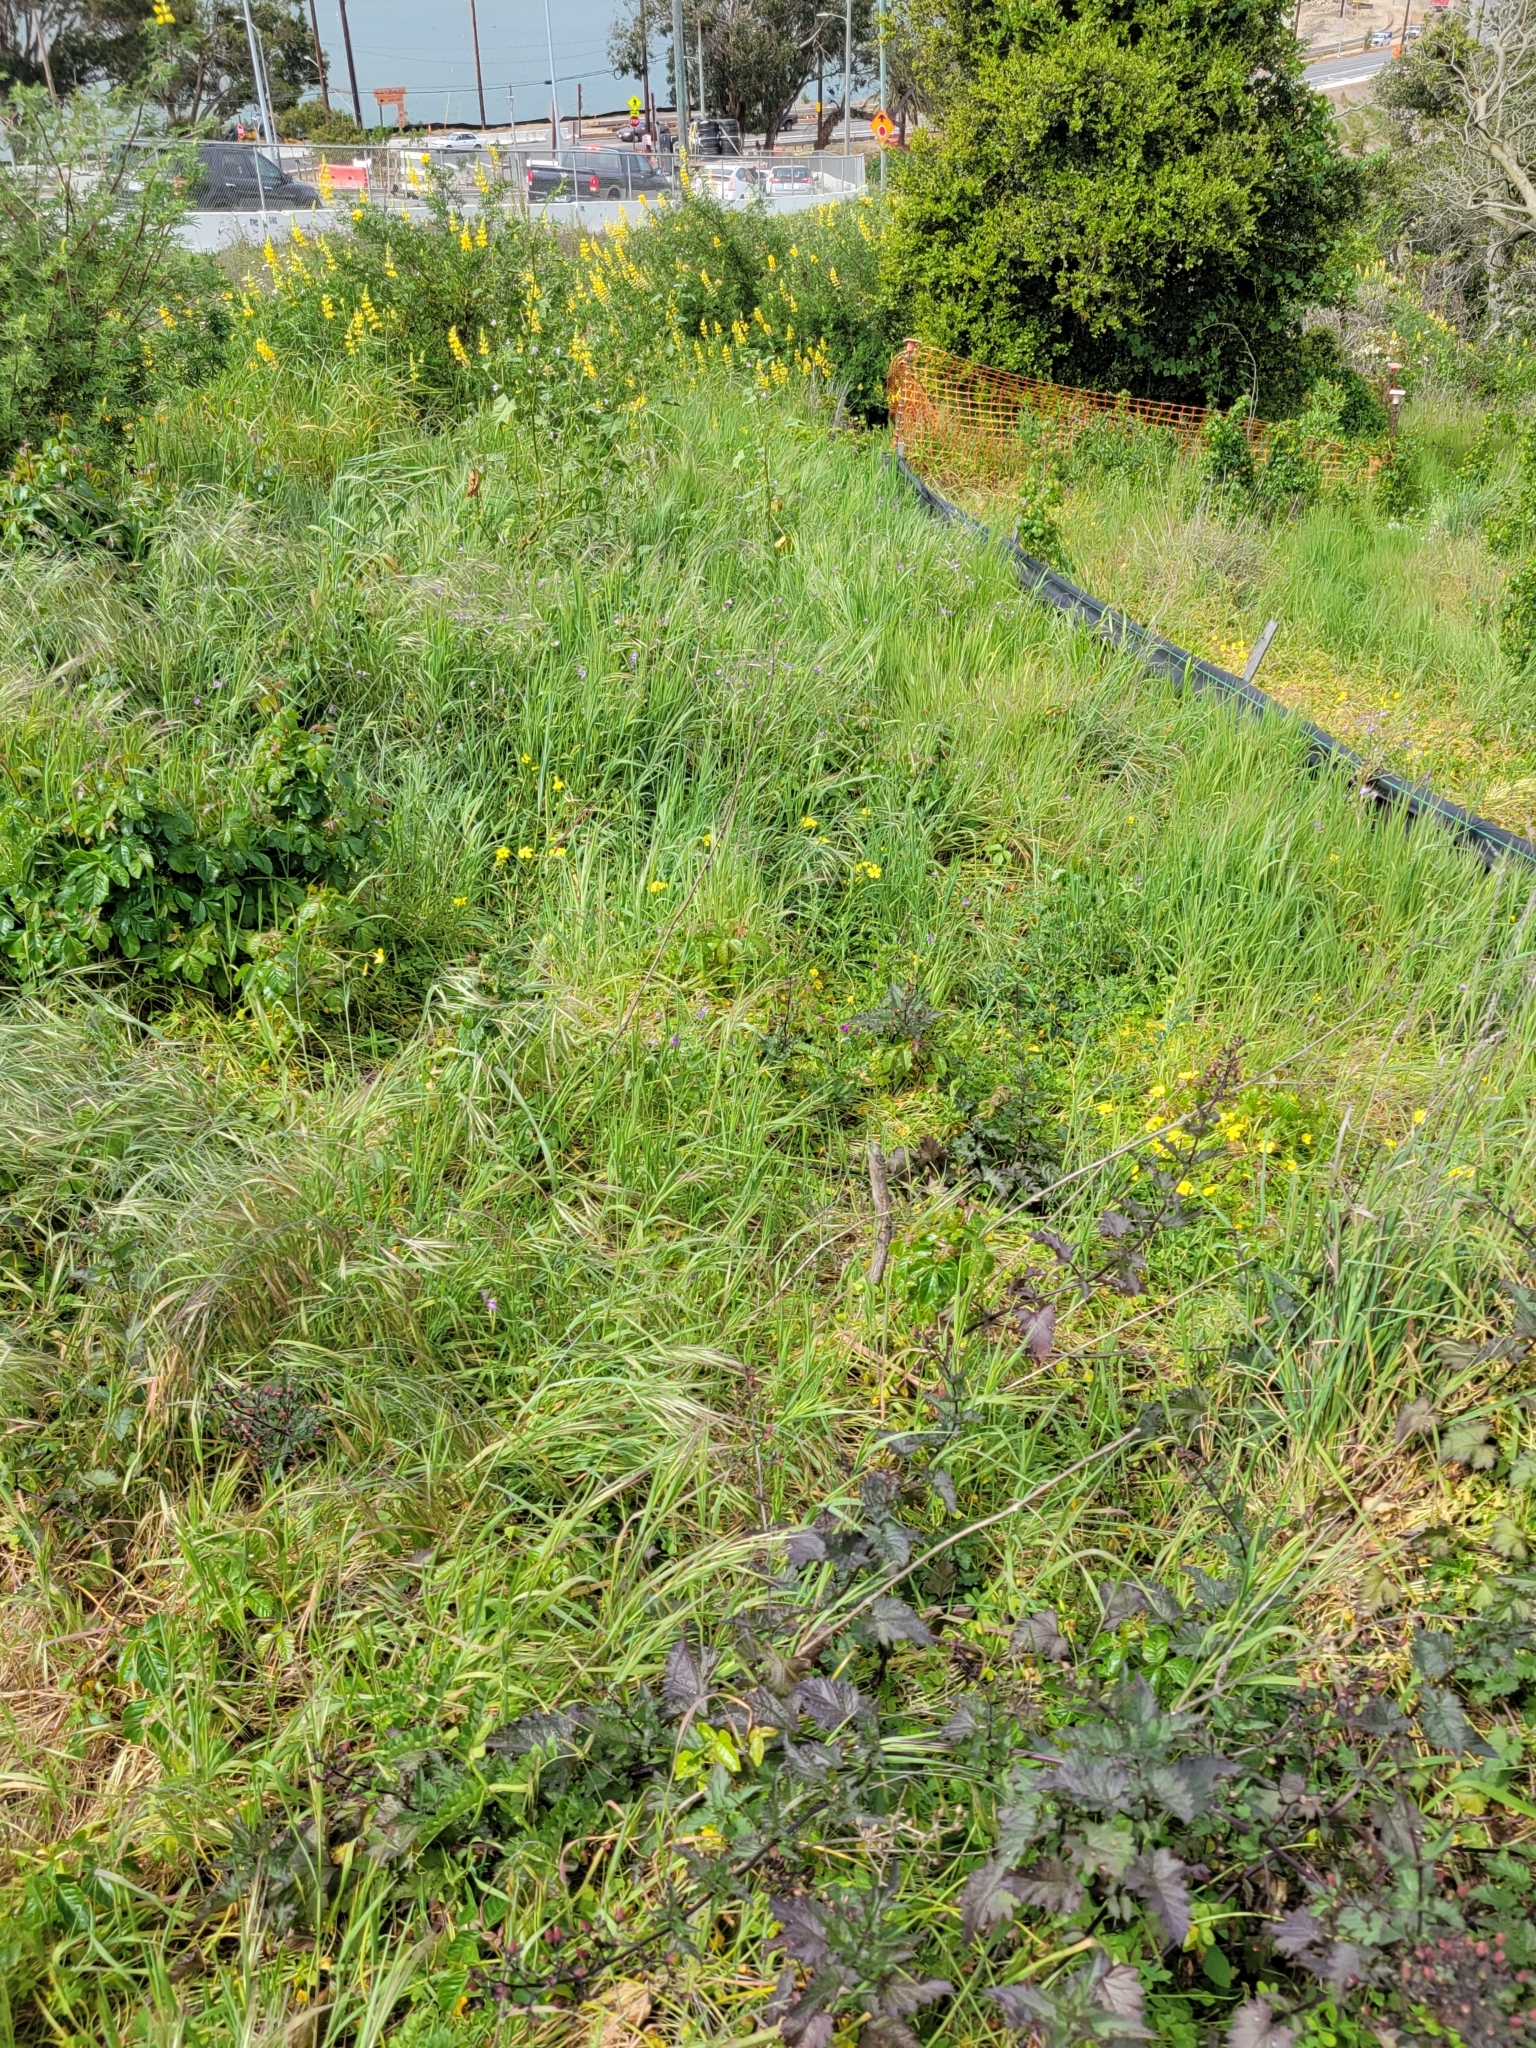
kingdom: Plantae
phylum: Tracheophyta
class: Magnoliopsida
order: Boraginales
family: Hydrophyllaceae
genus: Pholistoma
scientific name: Pholistoma auritum
